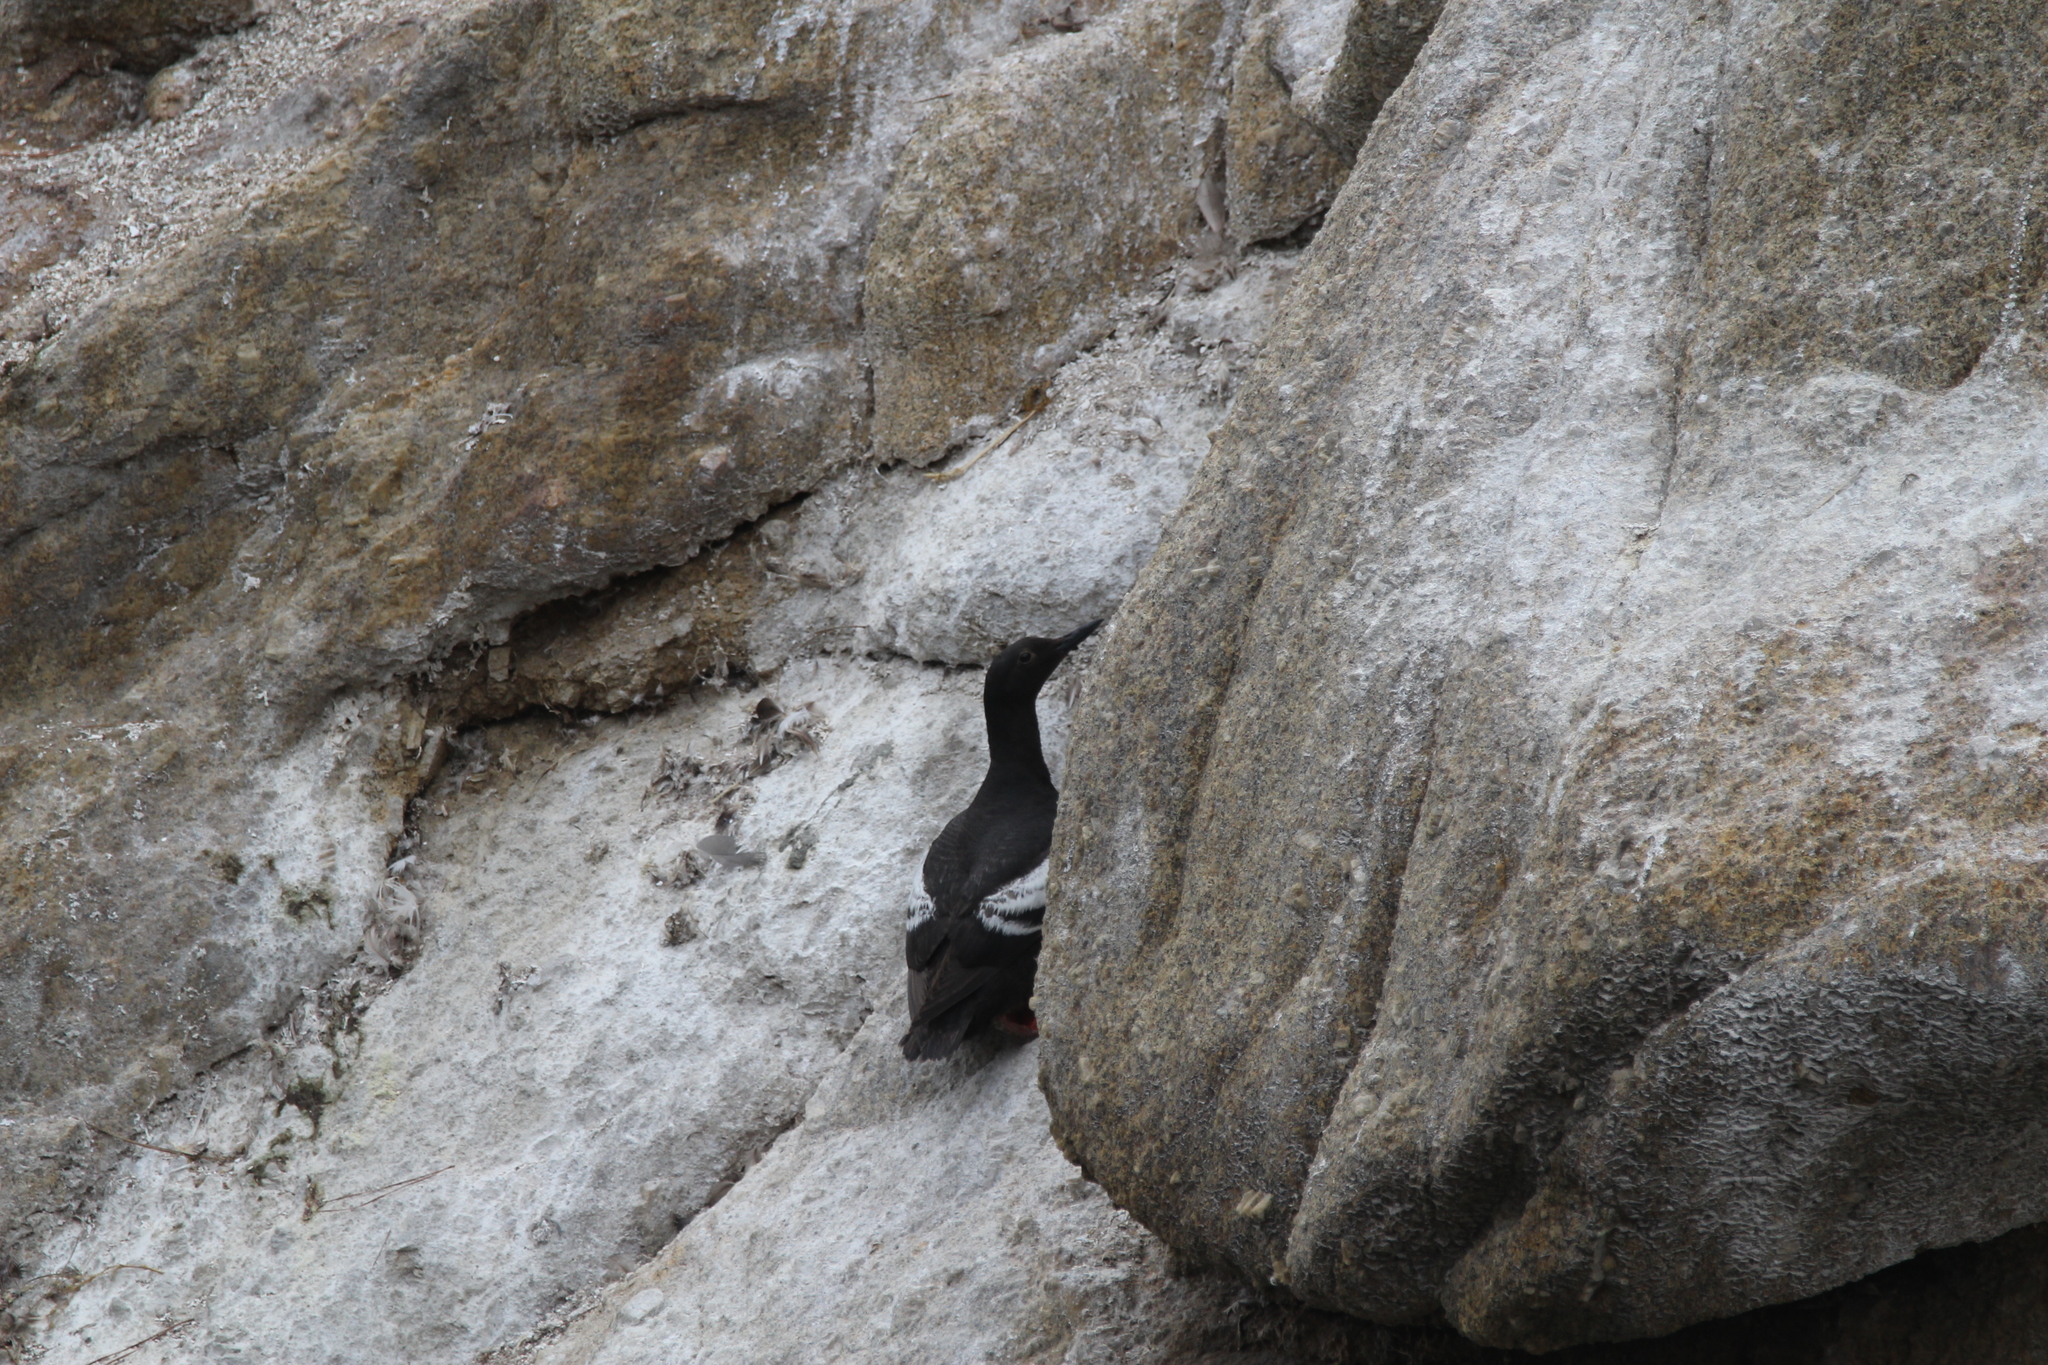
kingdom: Animalia
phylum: Chordata
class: Aves
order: Charadriiformes
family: Alcidae
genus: Cepphus
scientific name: Cepphus columba
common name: Pigeon guillemot
